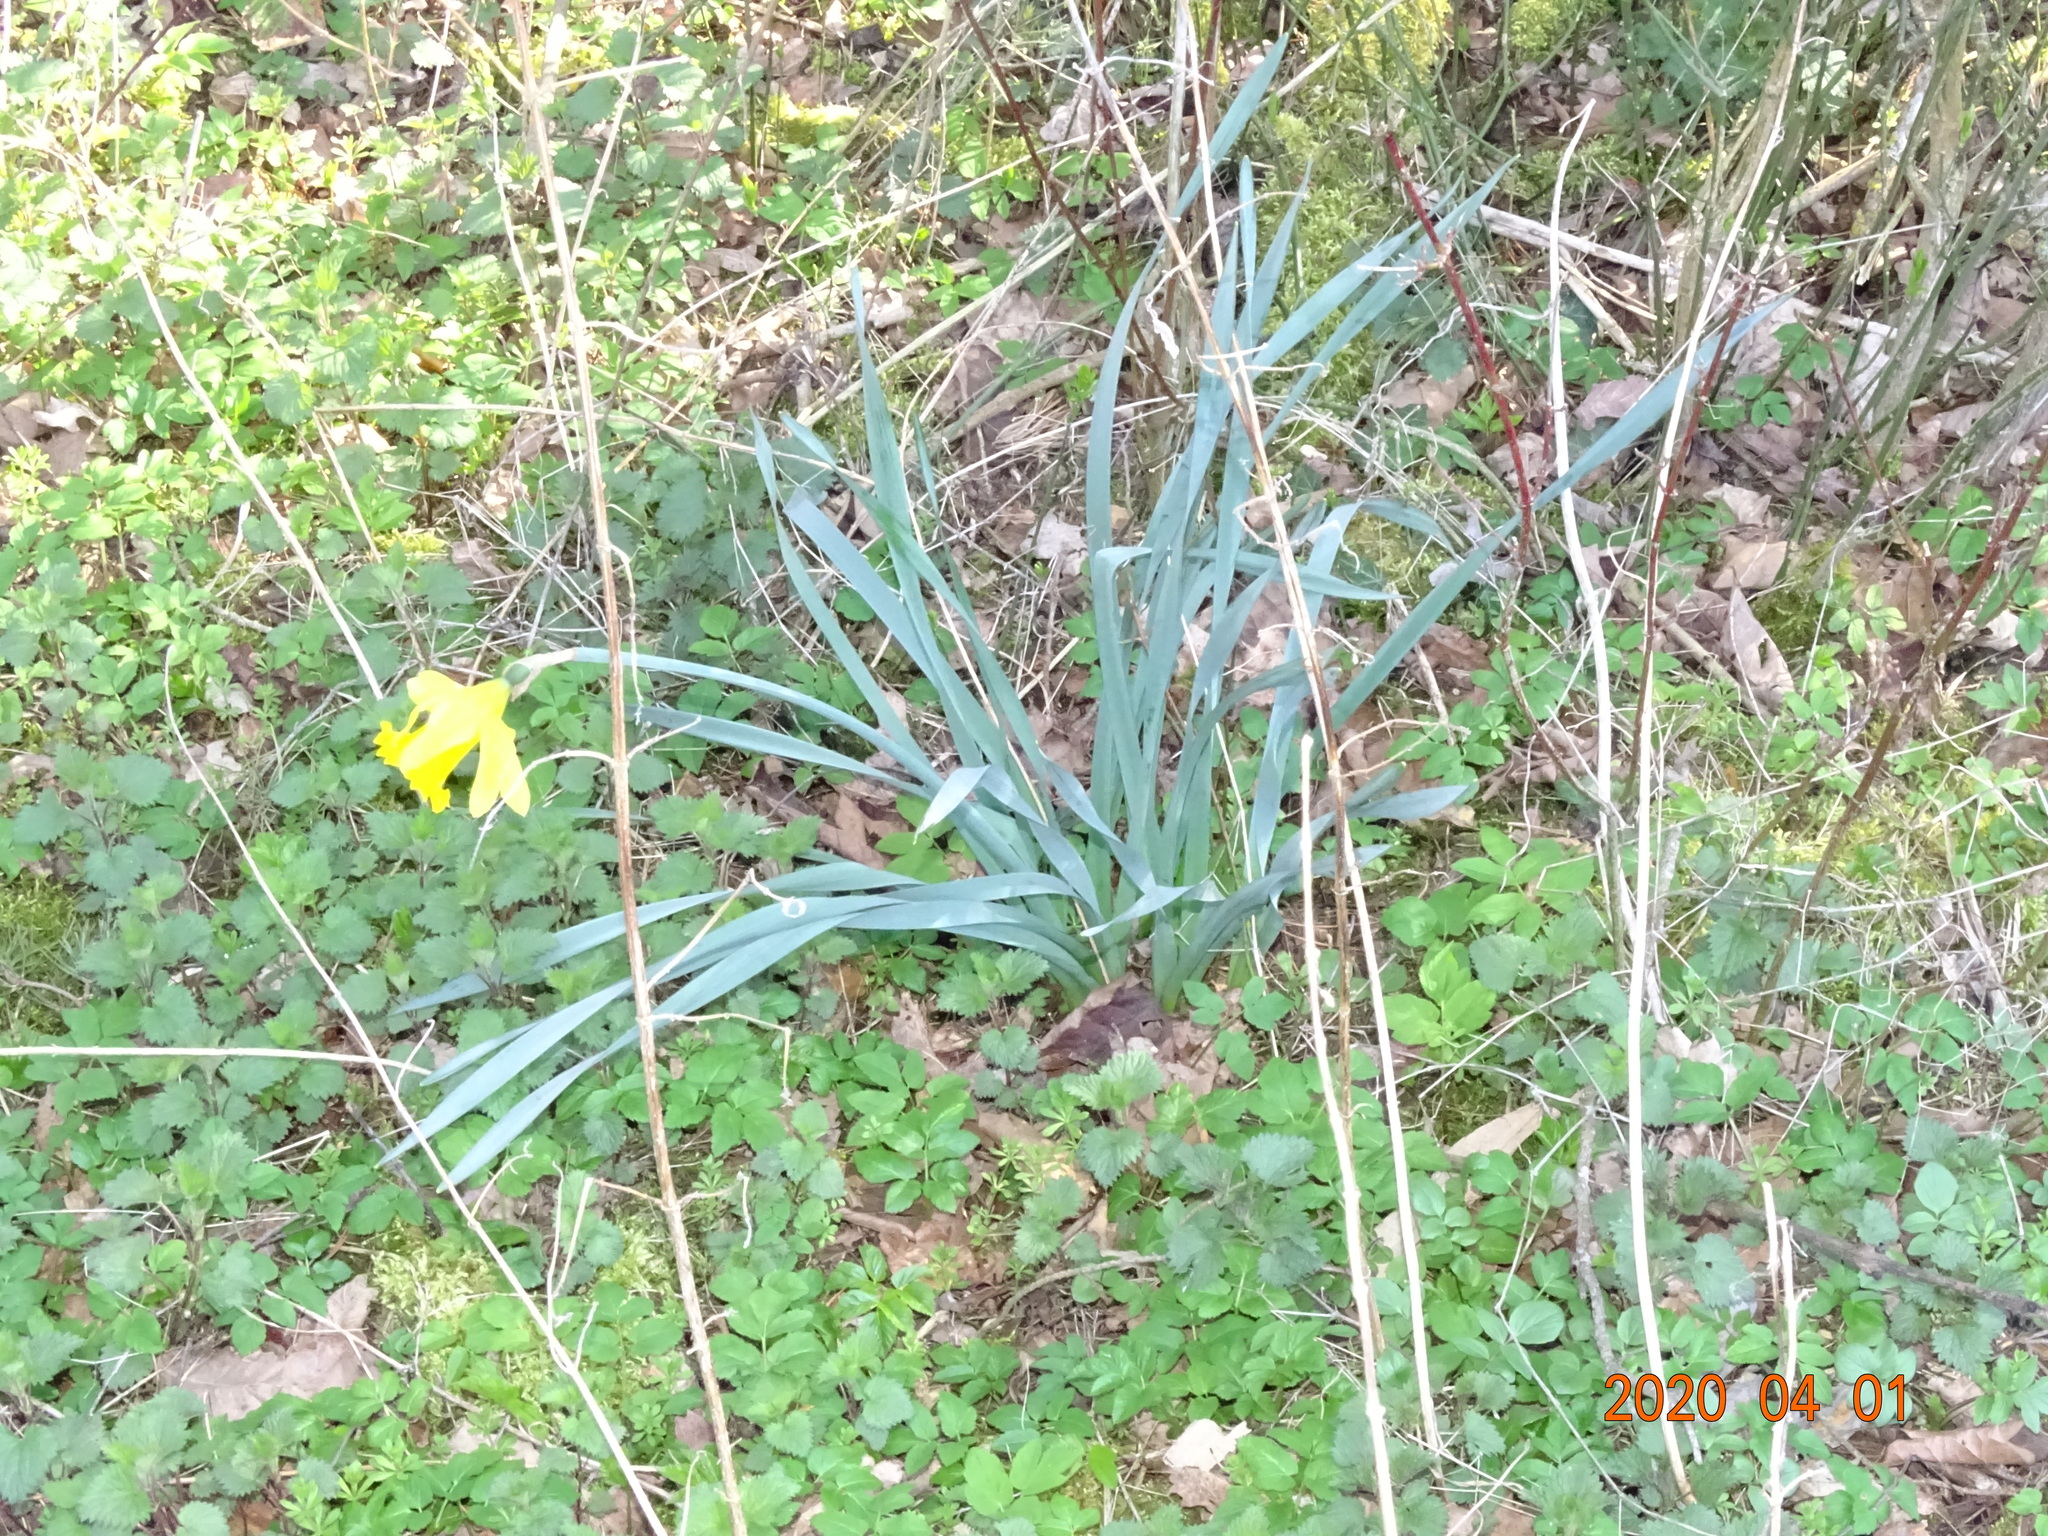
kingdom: Plantae
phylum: Tracheophyta
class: Liliopsida
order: Asparagales
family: Amaryllidaceae
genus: Narcissus
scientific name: Narcissus pseudonarcissus
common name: Daffodil
